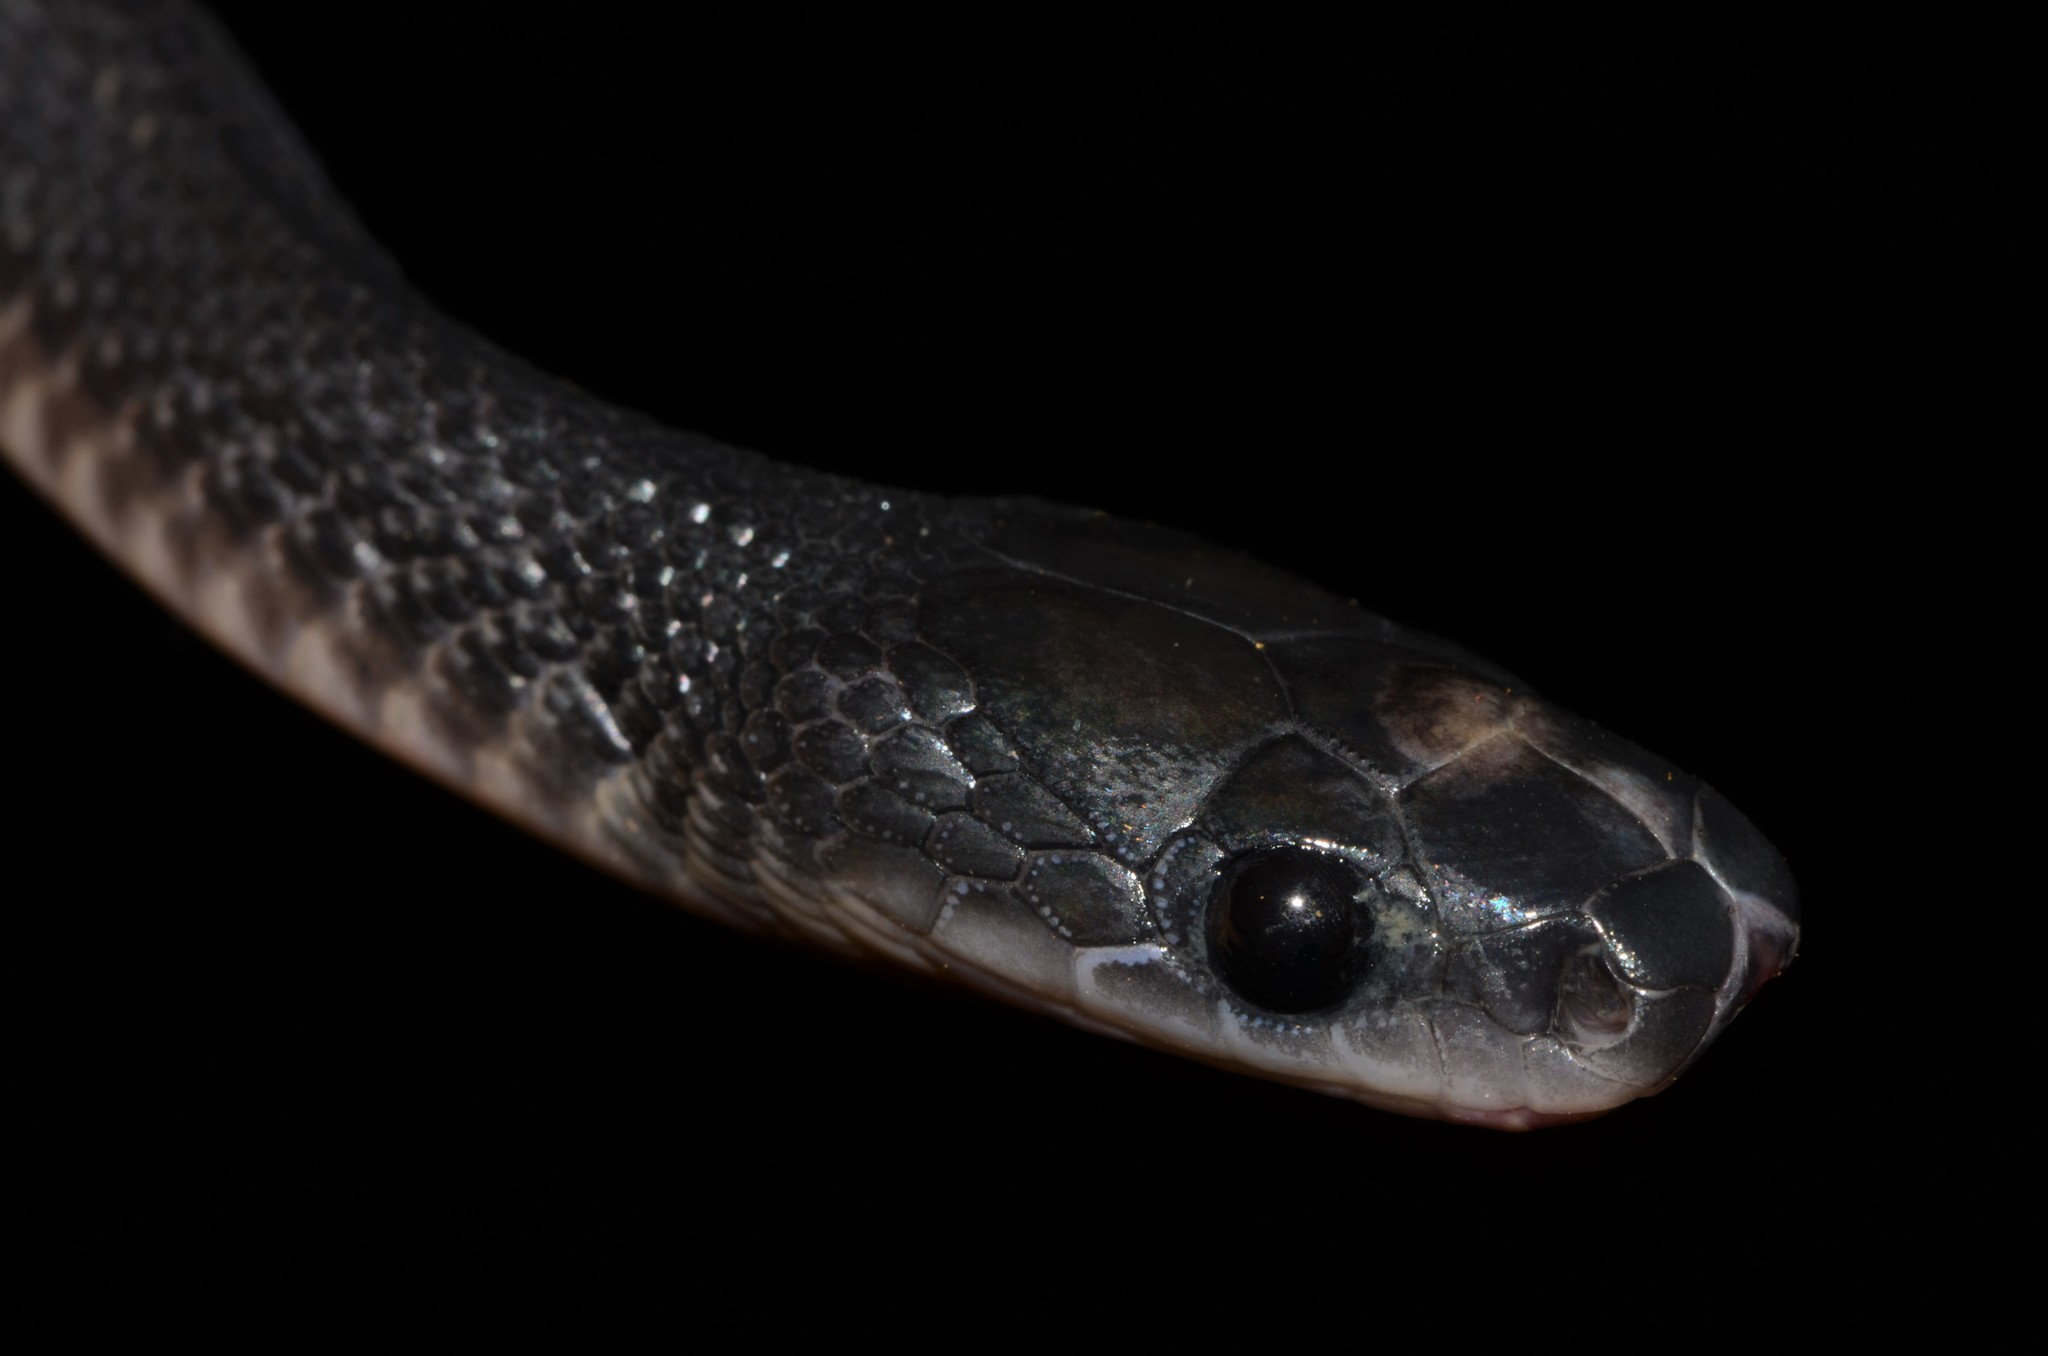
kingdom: Animalia
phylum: Chordata
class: Squamata
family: Lamprophiidae
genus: Limaformosa
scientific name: Limaformosa savorgnani
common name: Congo file snake
